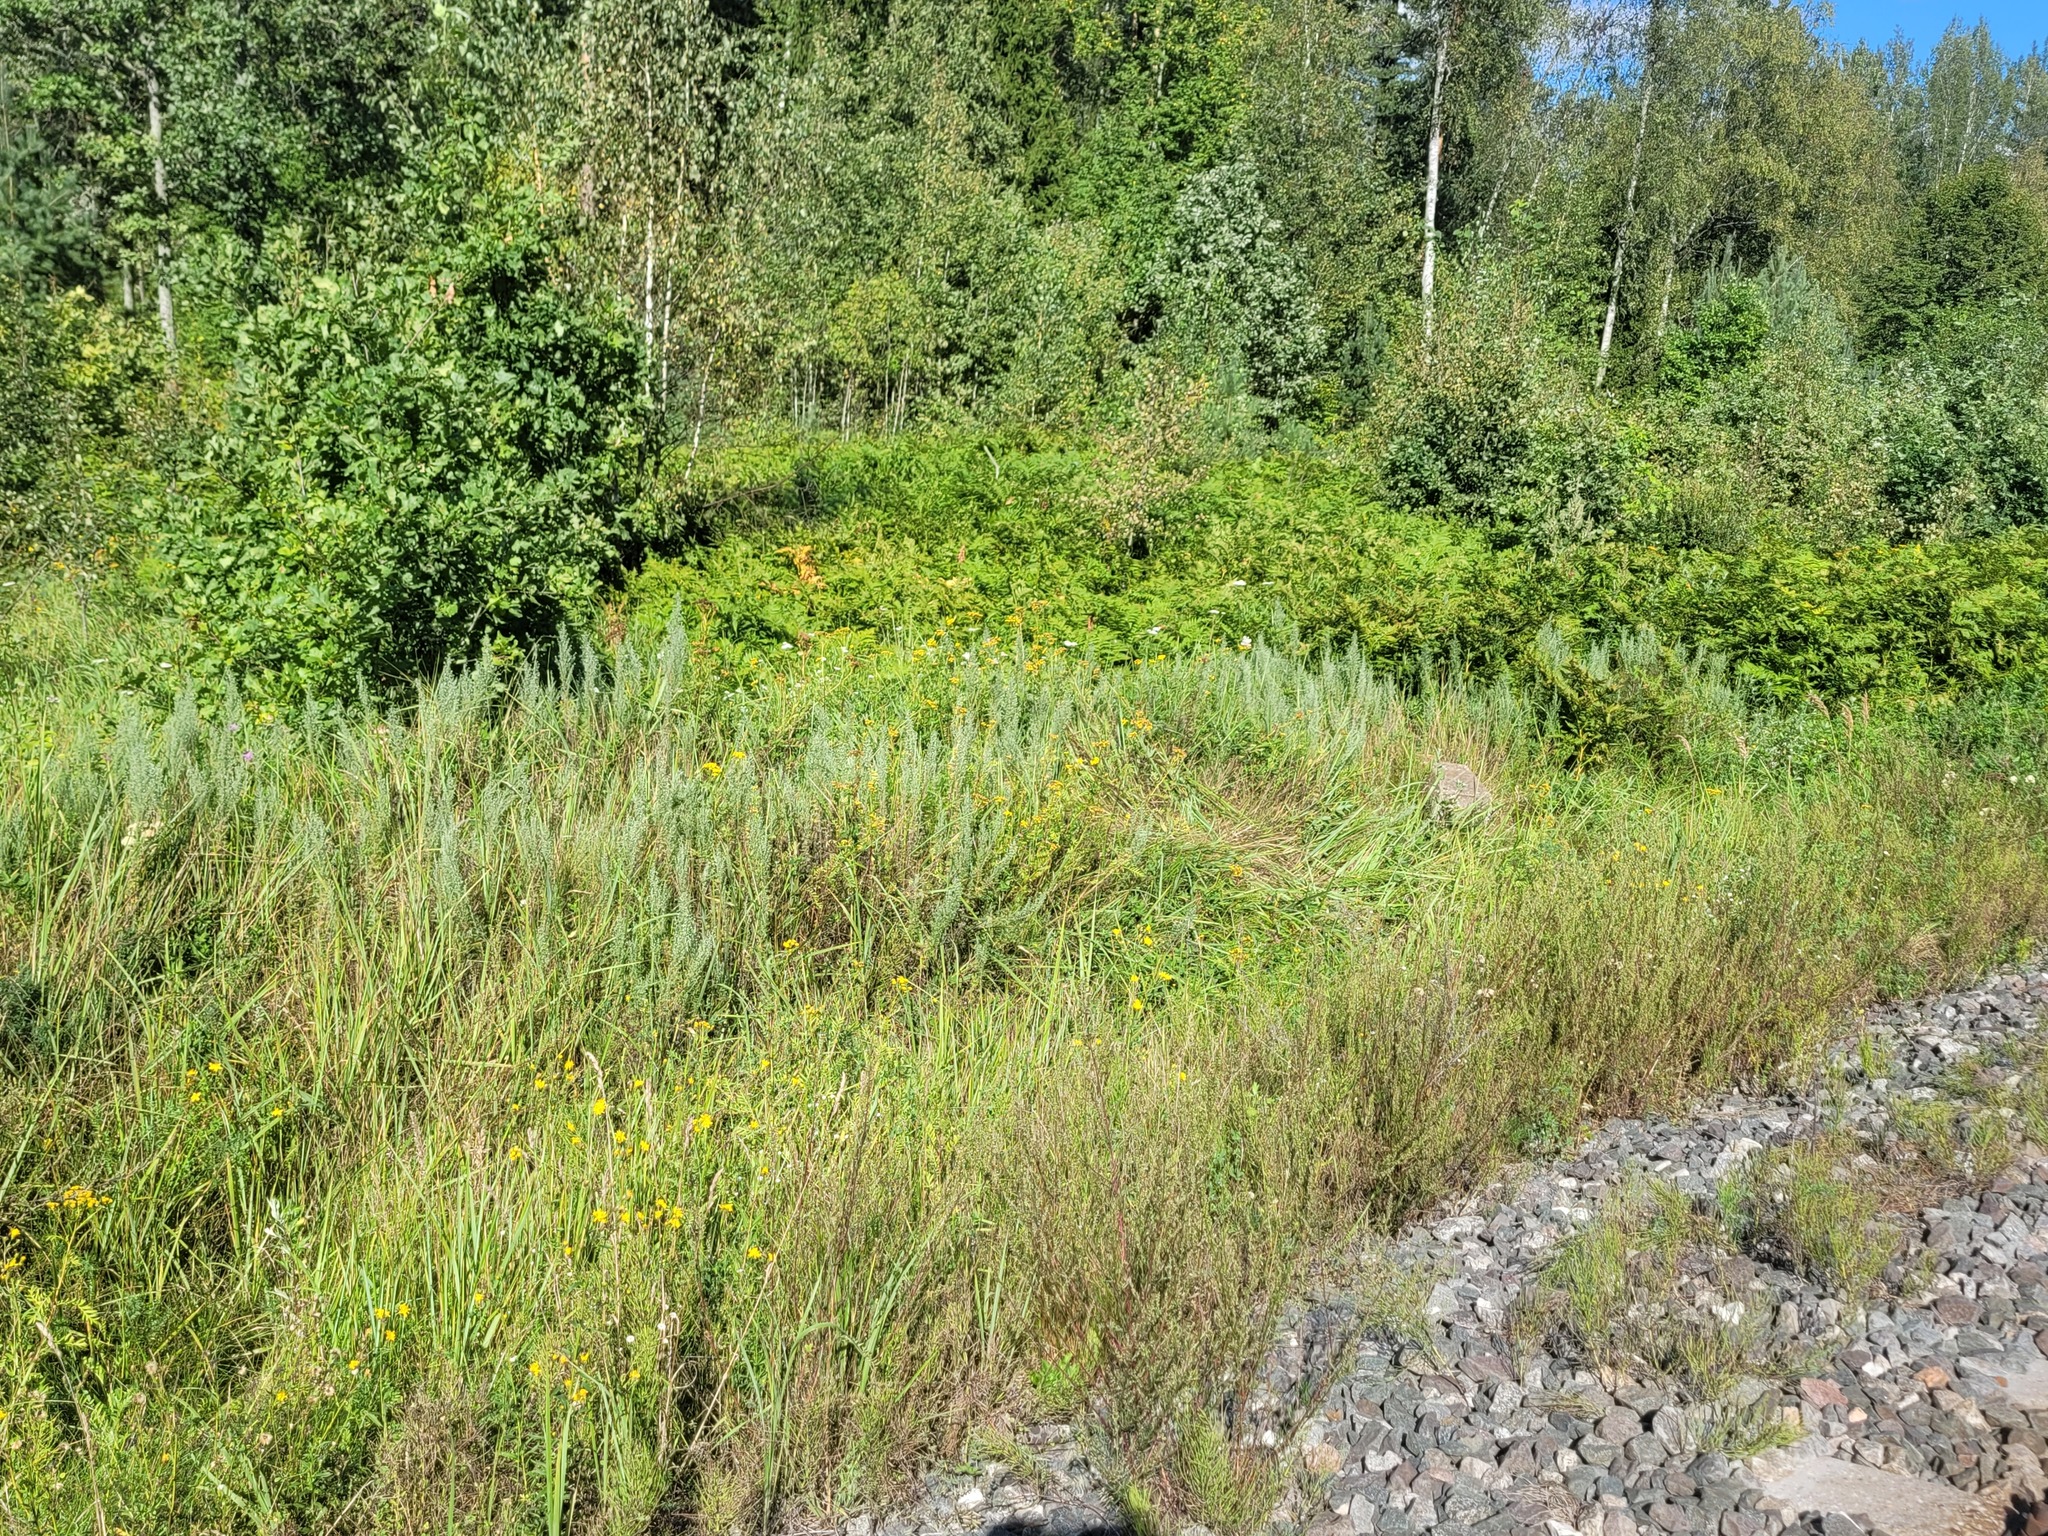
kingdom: Plantae
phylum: Tracheophyta
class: Magnoliopsida
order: Asterales
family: Asteraceae
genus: Artemisia
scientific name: Artemisia pontica
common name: Roman wormwood
